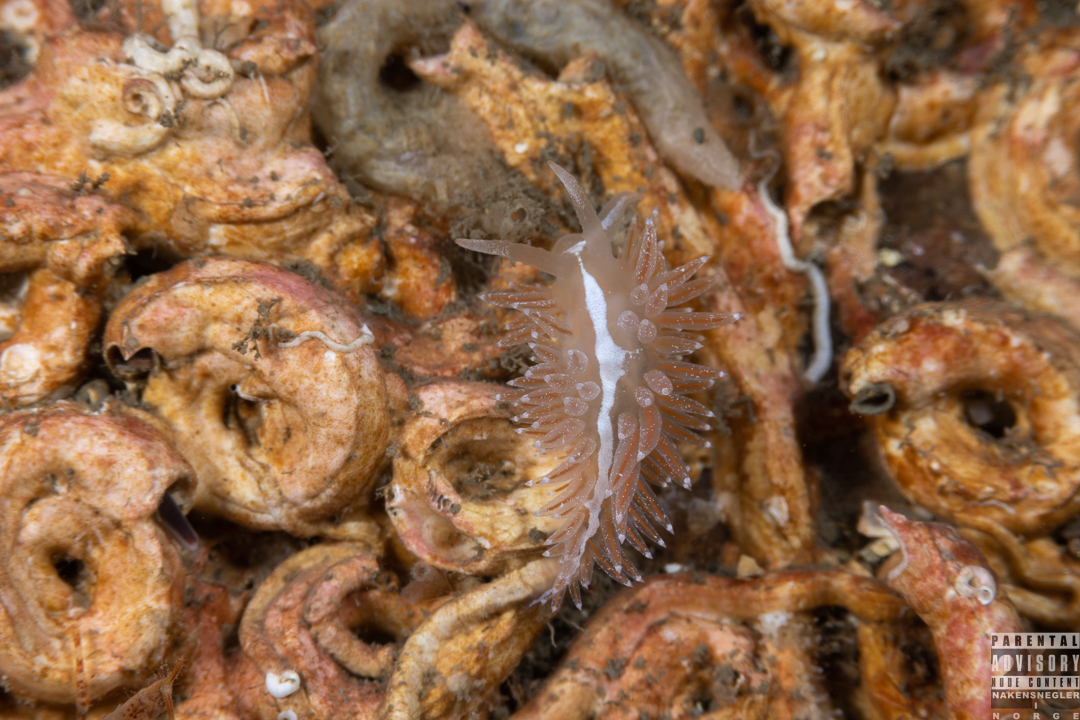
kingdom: Animalia
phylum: Mollusca
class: Gastropoda
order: Nudibranchia
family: Coryphellidae
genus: Coryphella
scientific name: Coryphella monicae
